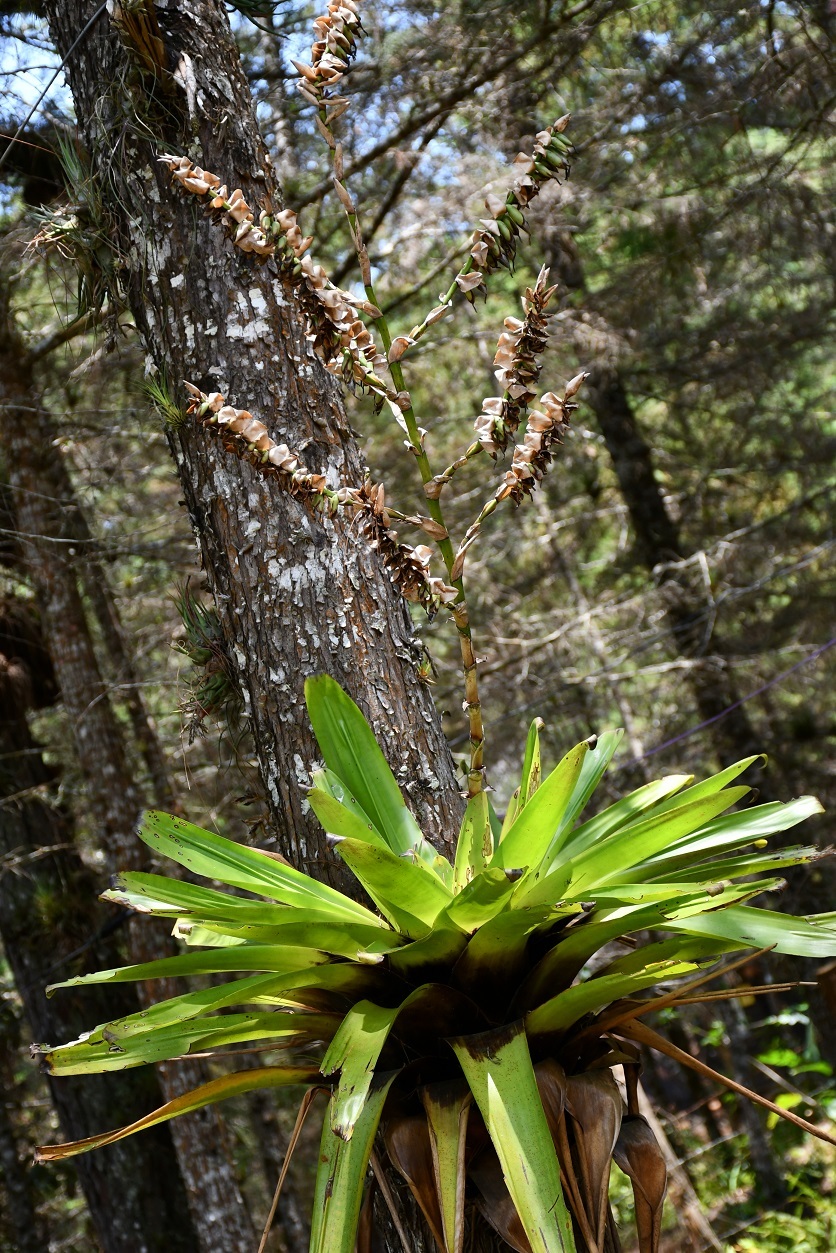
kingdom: Plantae
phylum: Tracheophyta
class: Liliopsida
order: Poales
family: Bromeliaceae
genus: Werauhia
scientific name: Werauhia werckleana
